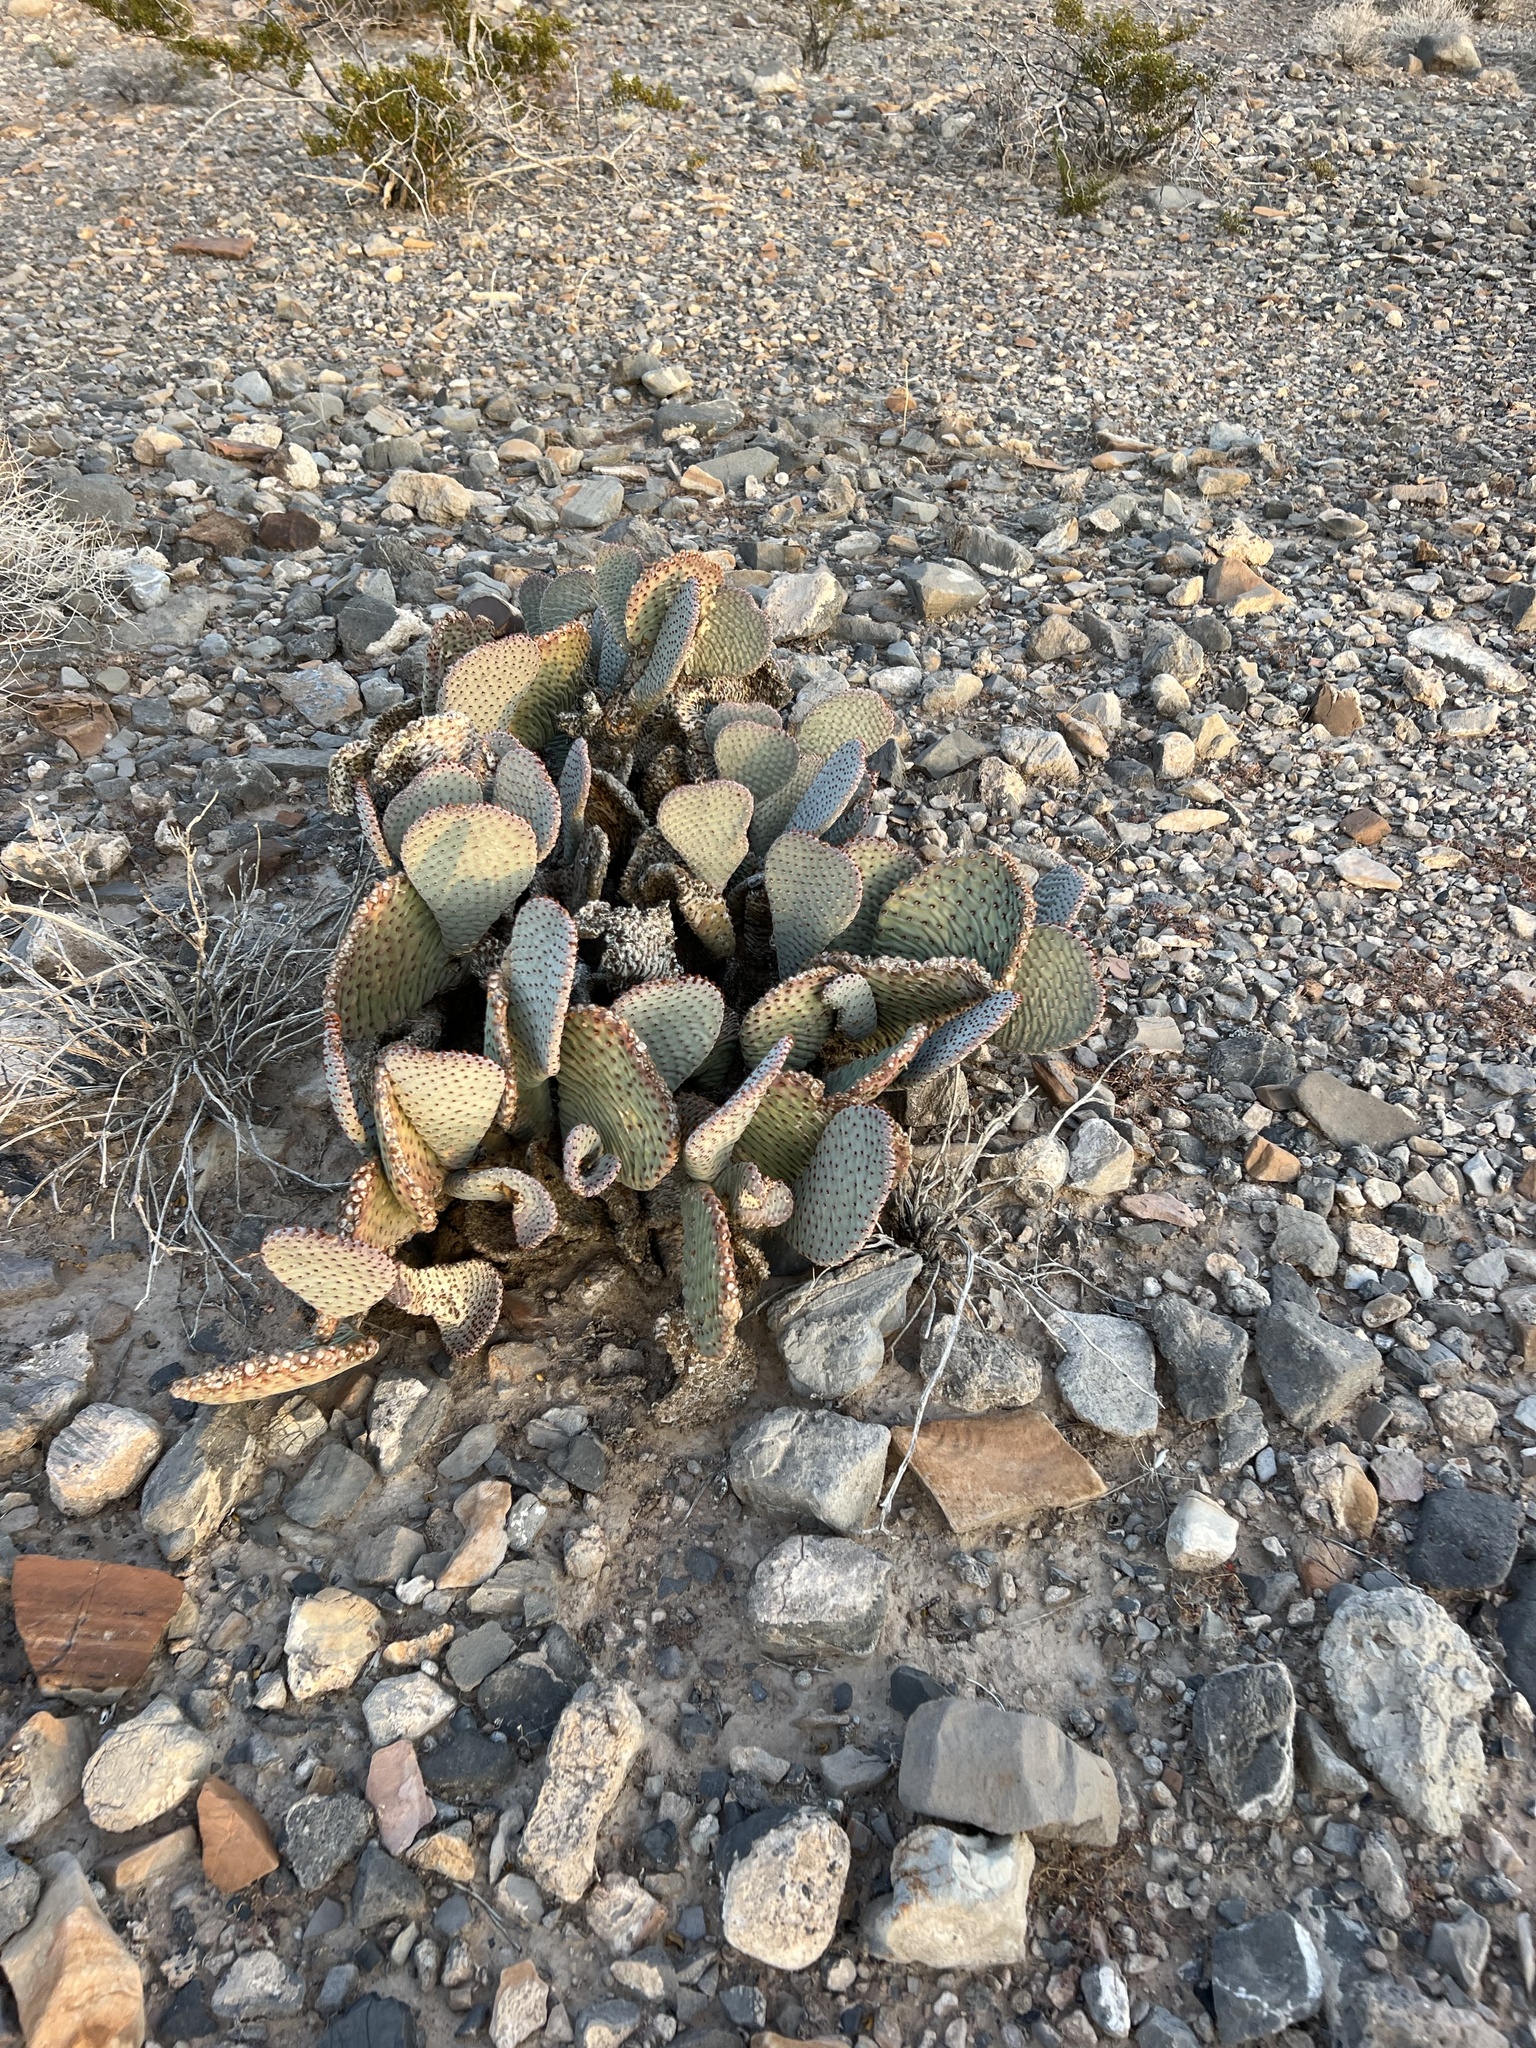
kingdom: Plantae
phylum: Tracheophyta
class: Magnoliopsida
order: Caryophyllales
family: Cactaceae
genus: Opuntia
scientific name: Opuntia basilaris
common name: Beavertail prickly-pear
